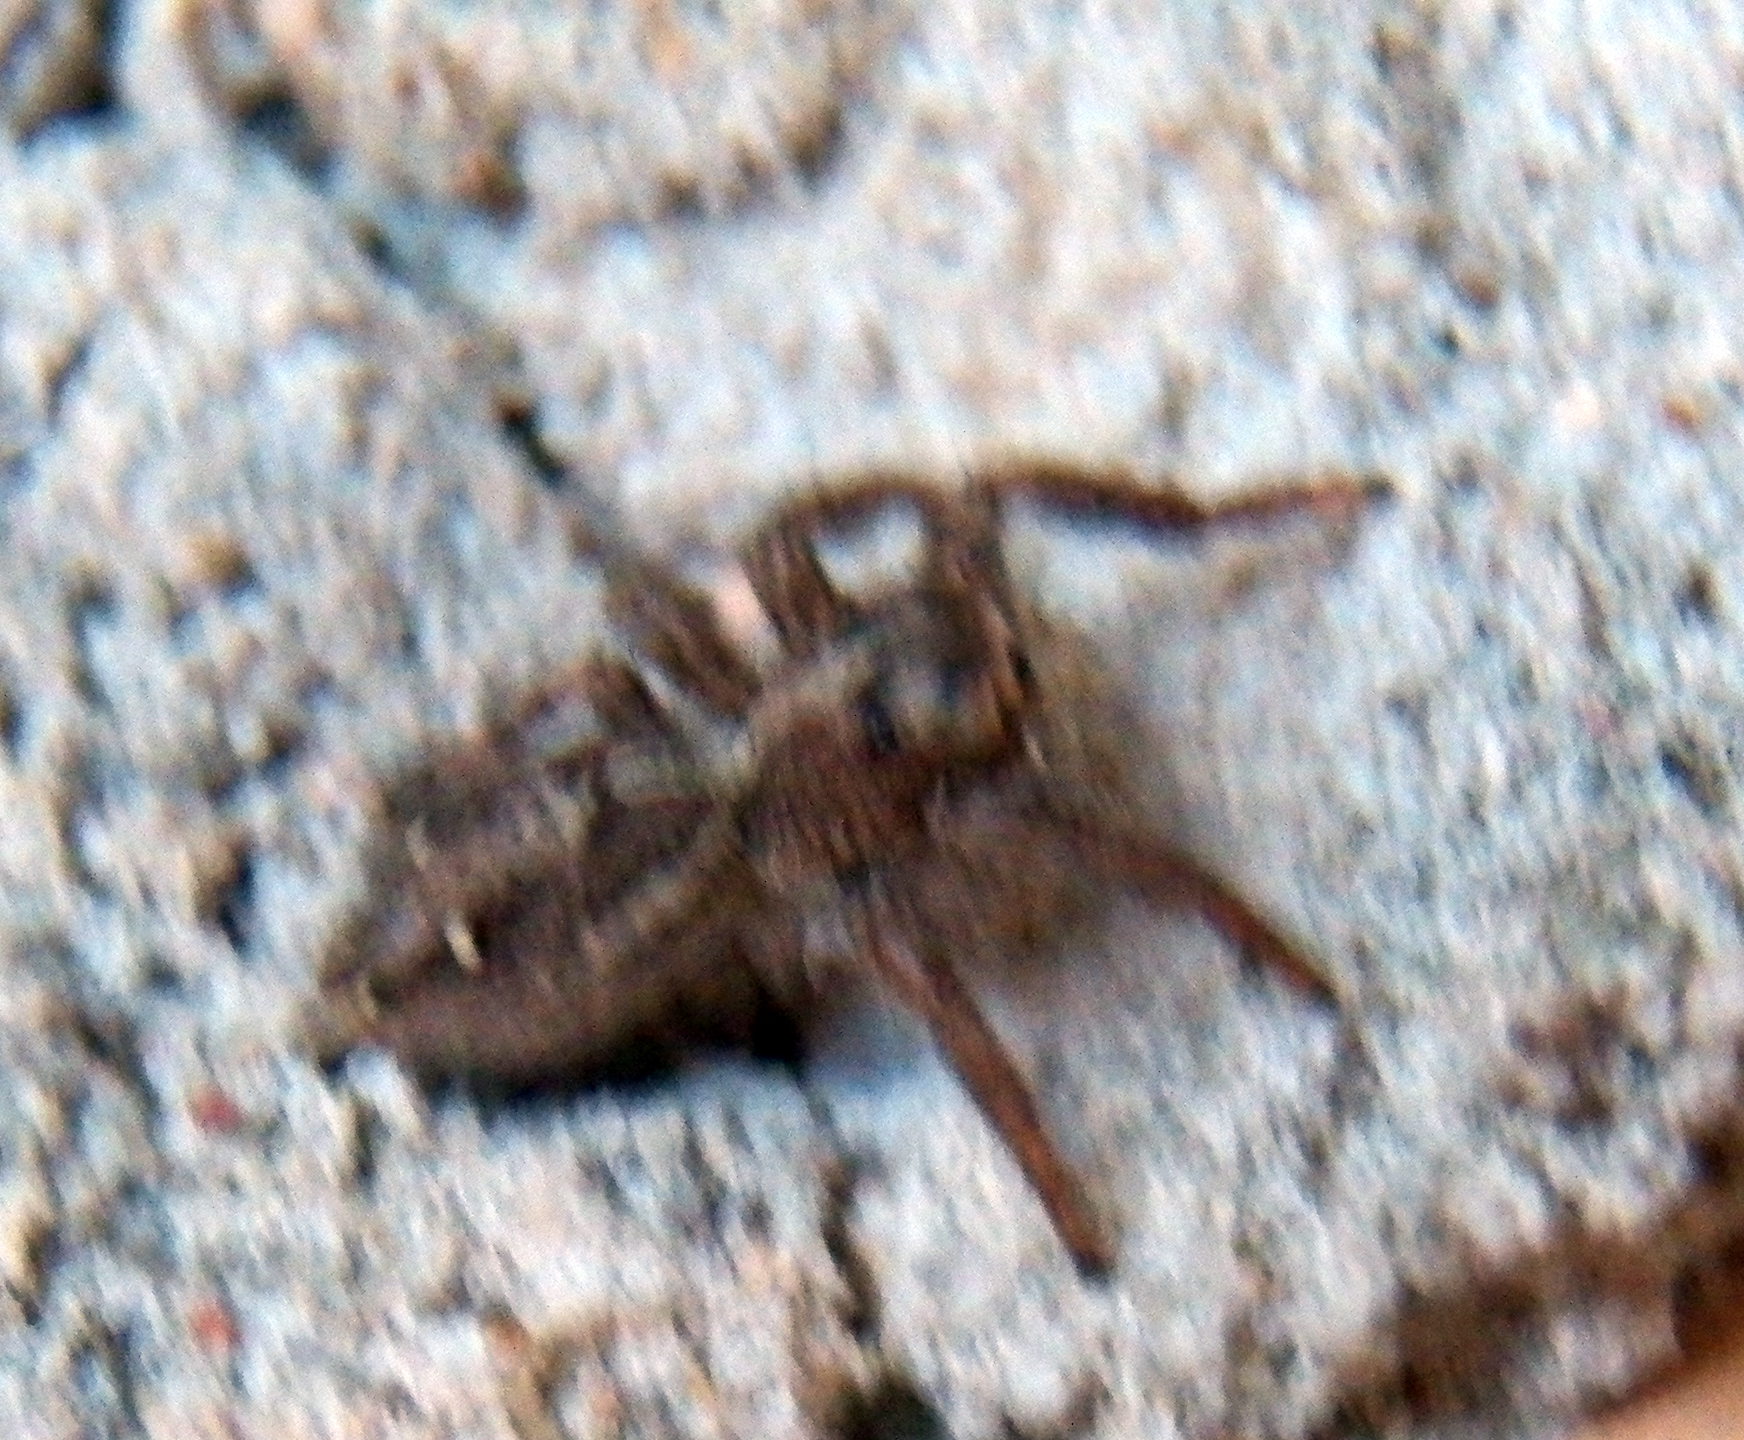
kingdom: Animalia
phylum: Arthropoda
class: Arachnida
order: Araneae
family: Salticidae
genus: Plexippus
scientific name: Plexippus paykulli
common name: Pantropical jumper
